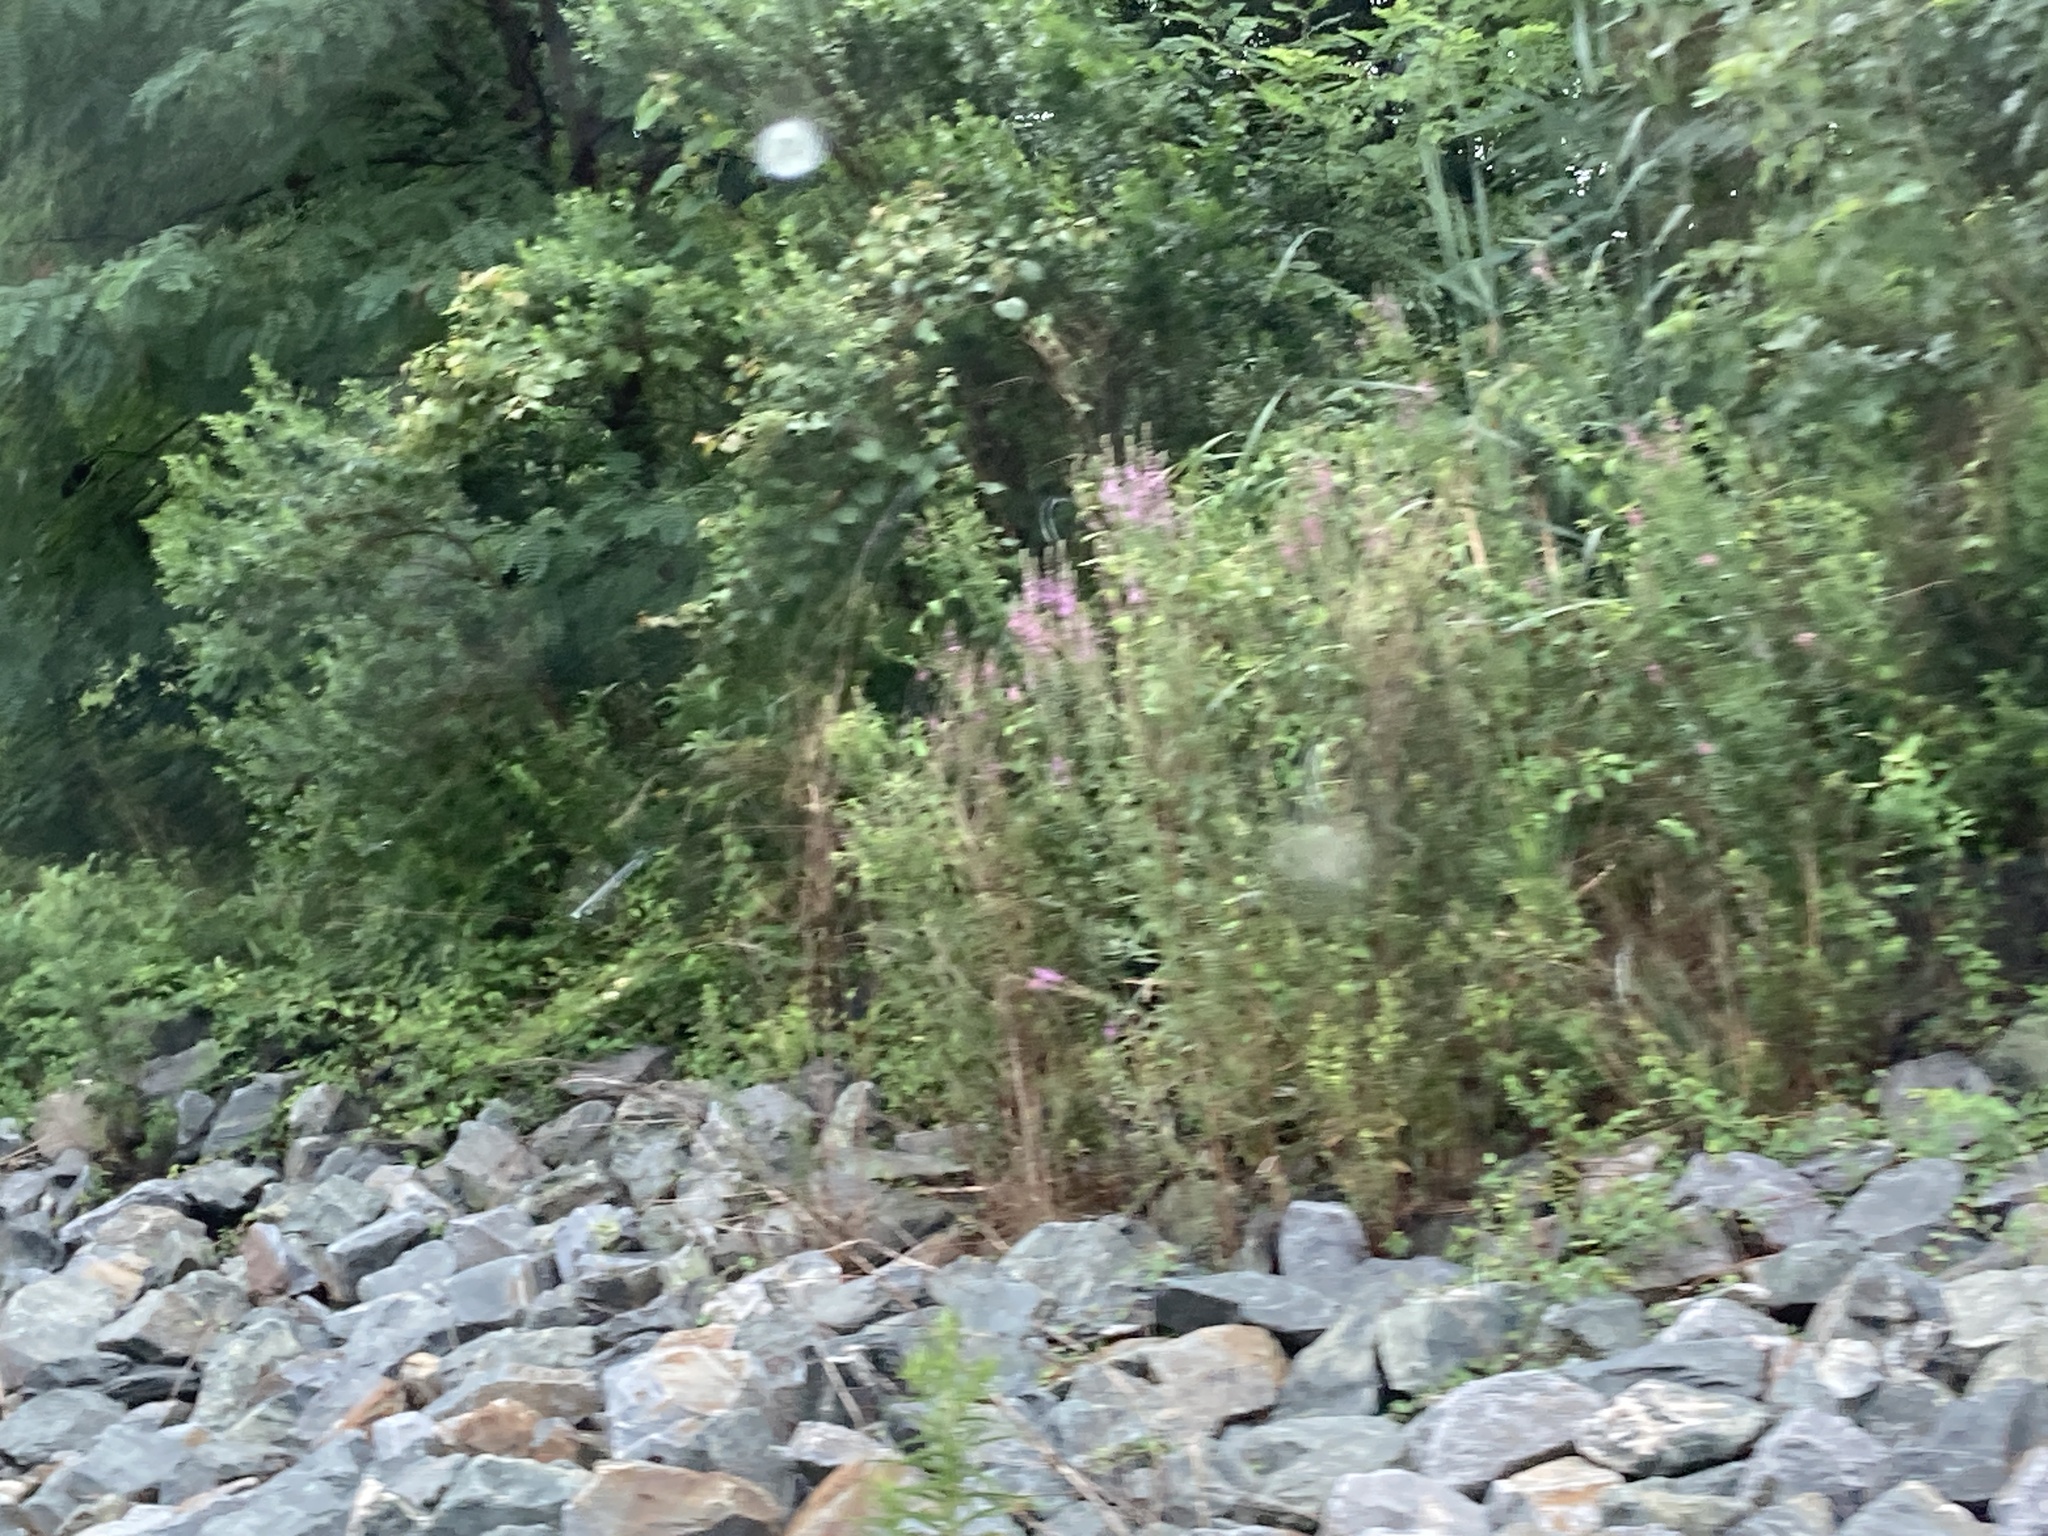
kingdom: Plantae
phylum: Tracheophyta
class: Magnoliopsida
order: Myrtales
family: Lythraceae
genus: Lythrum
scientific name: Lythrum salicaria
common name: Purple loosestrife
